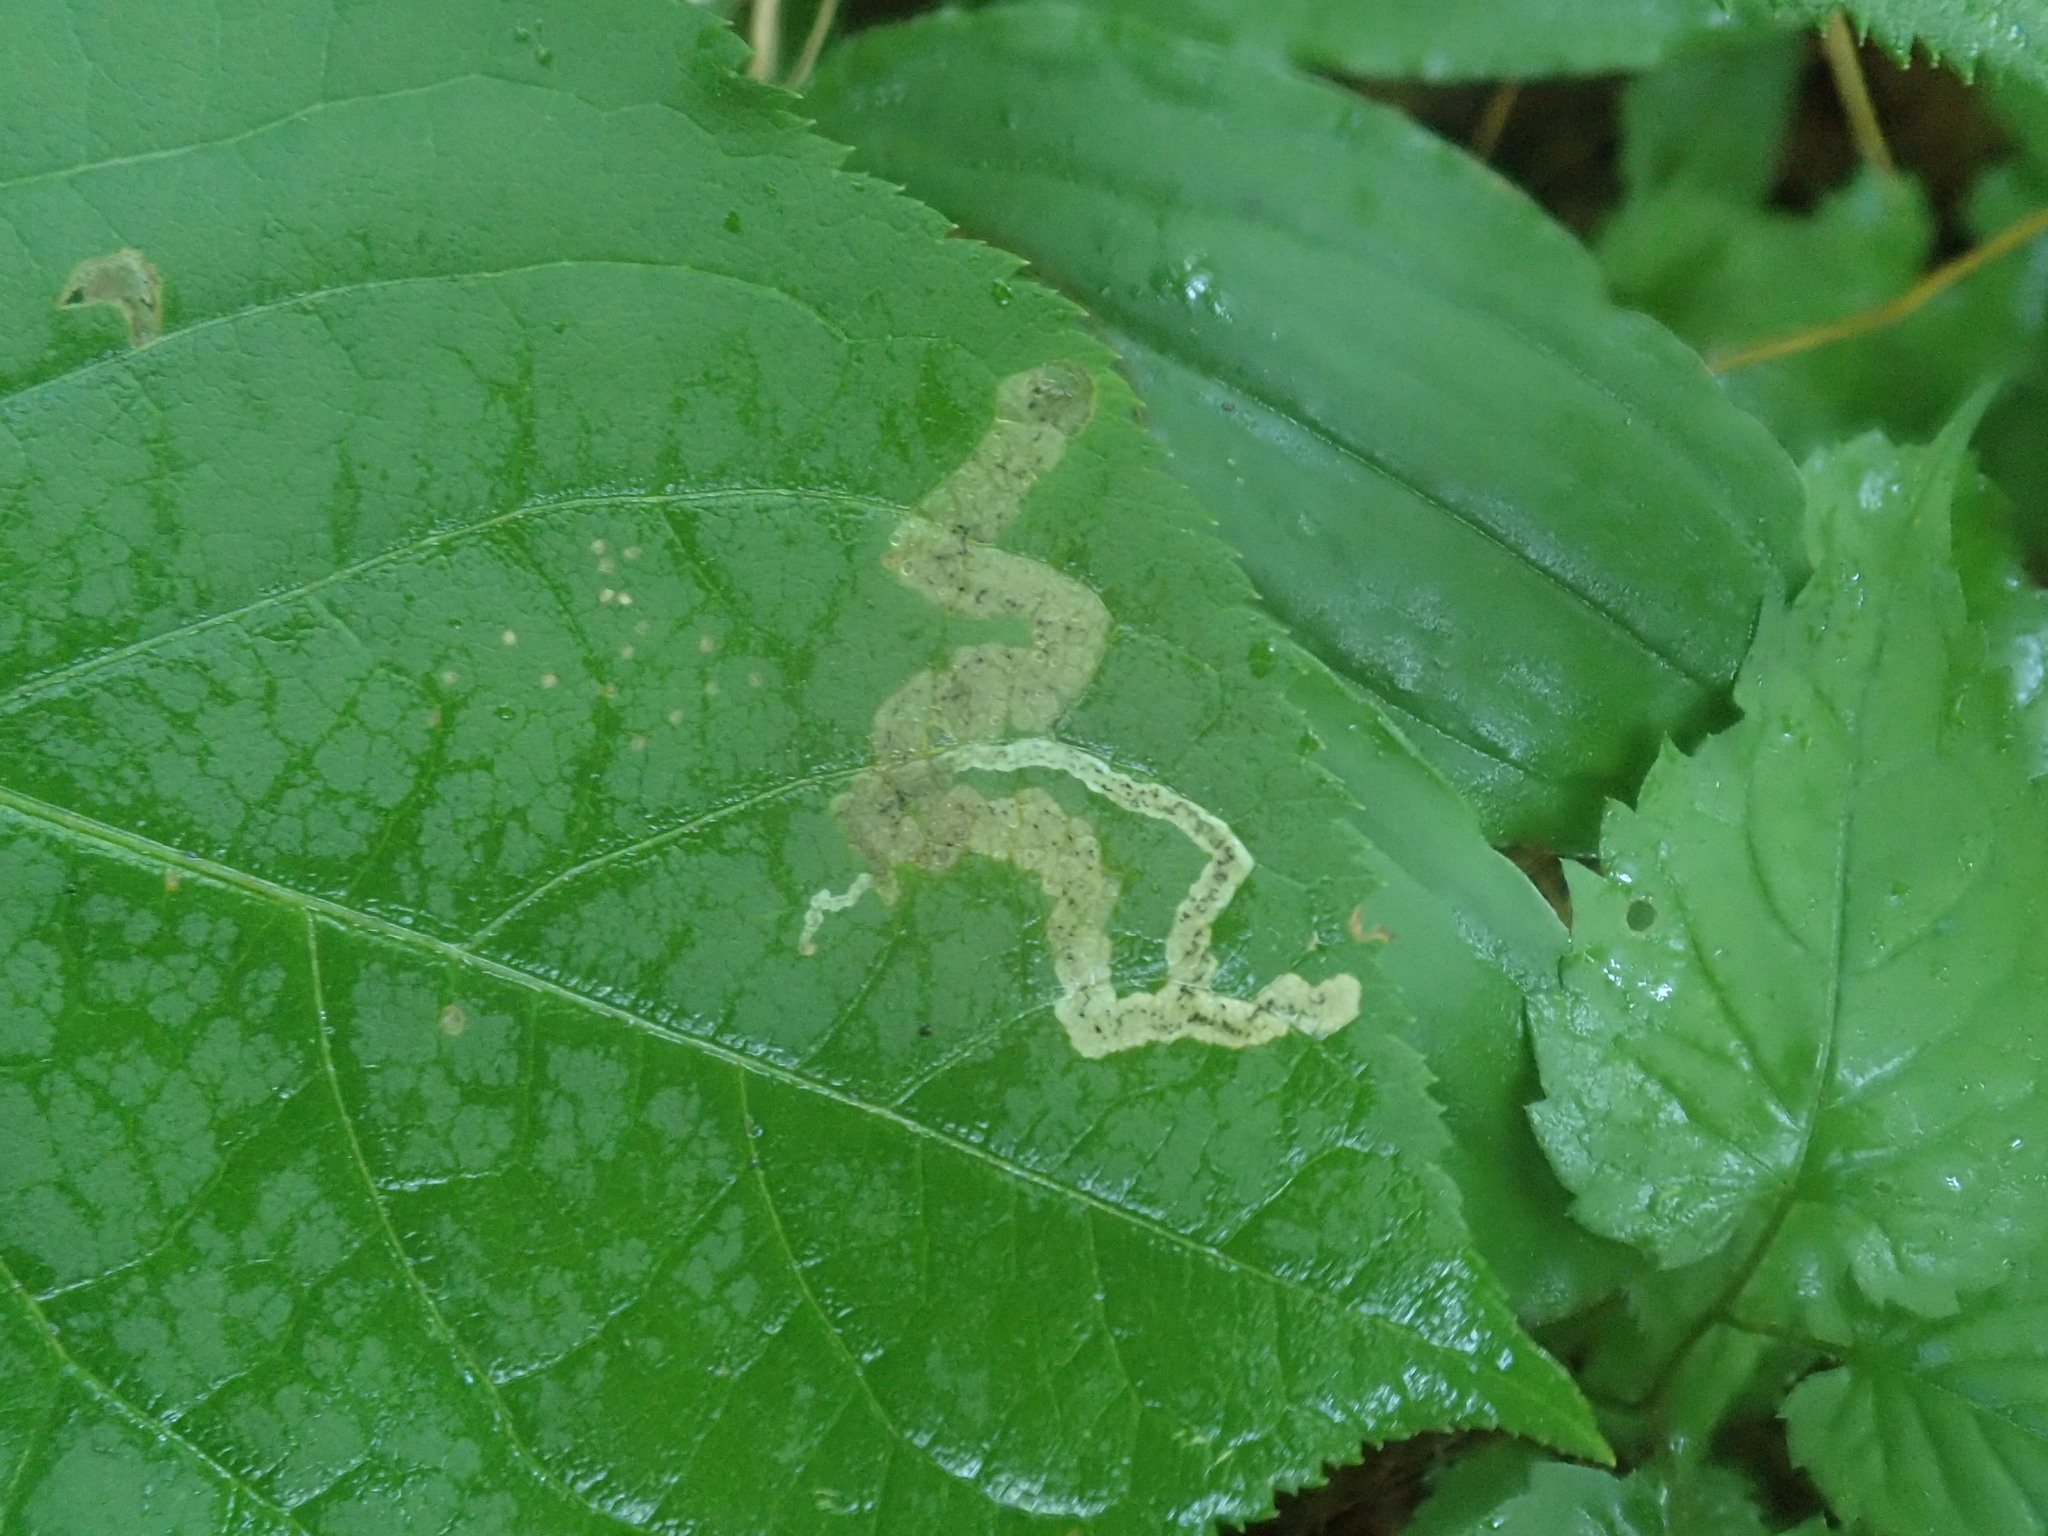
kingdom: Animalia
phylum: Arthropoda
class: Insecta
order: Diptera
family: Agromyzidae
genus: Phytomyza
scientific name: Phytomyza aralivora
